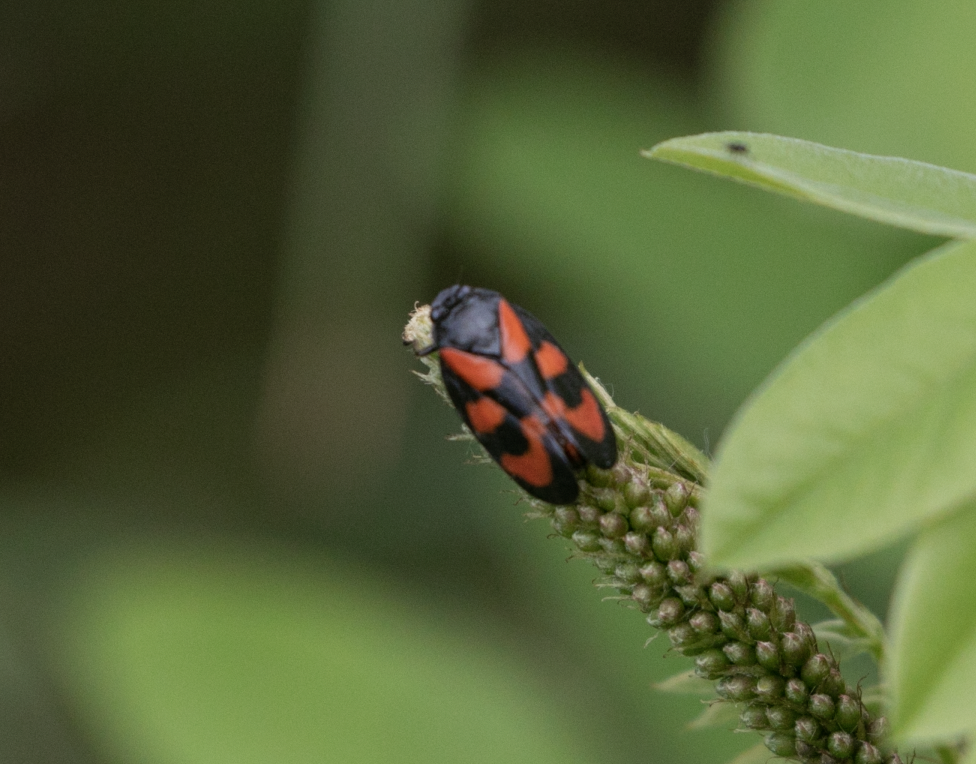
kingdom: Animalia
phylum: Arthropoda
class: Insecta
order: Hemiptera
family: Cercopidae
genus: Cercopis
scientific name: Cercopis vulnerata
